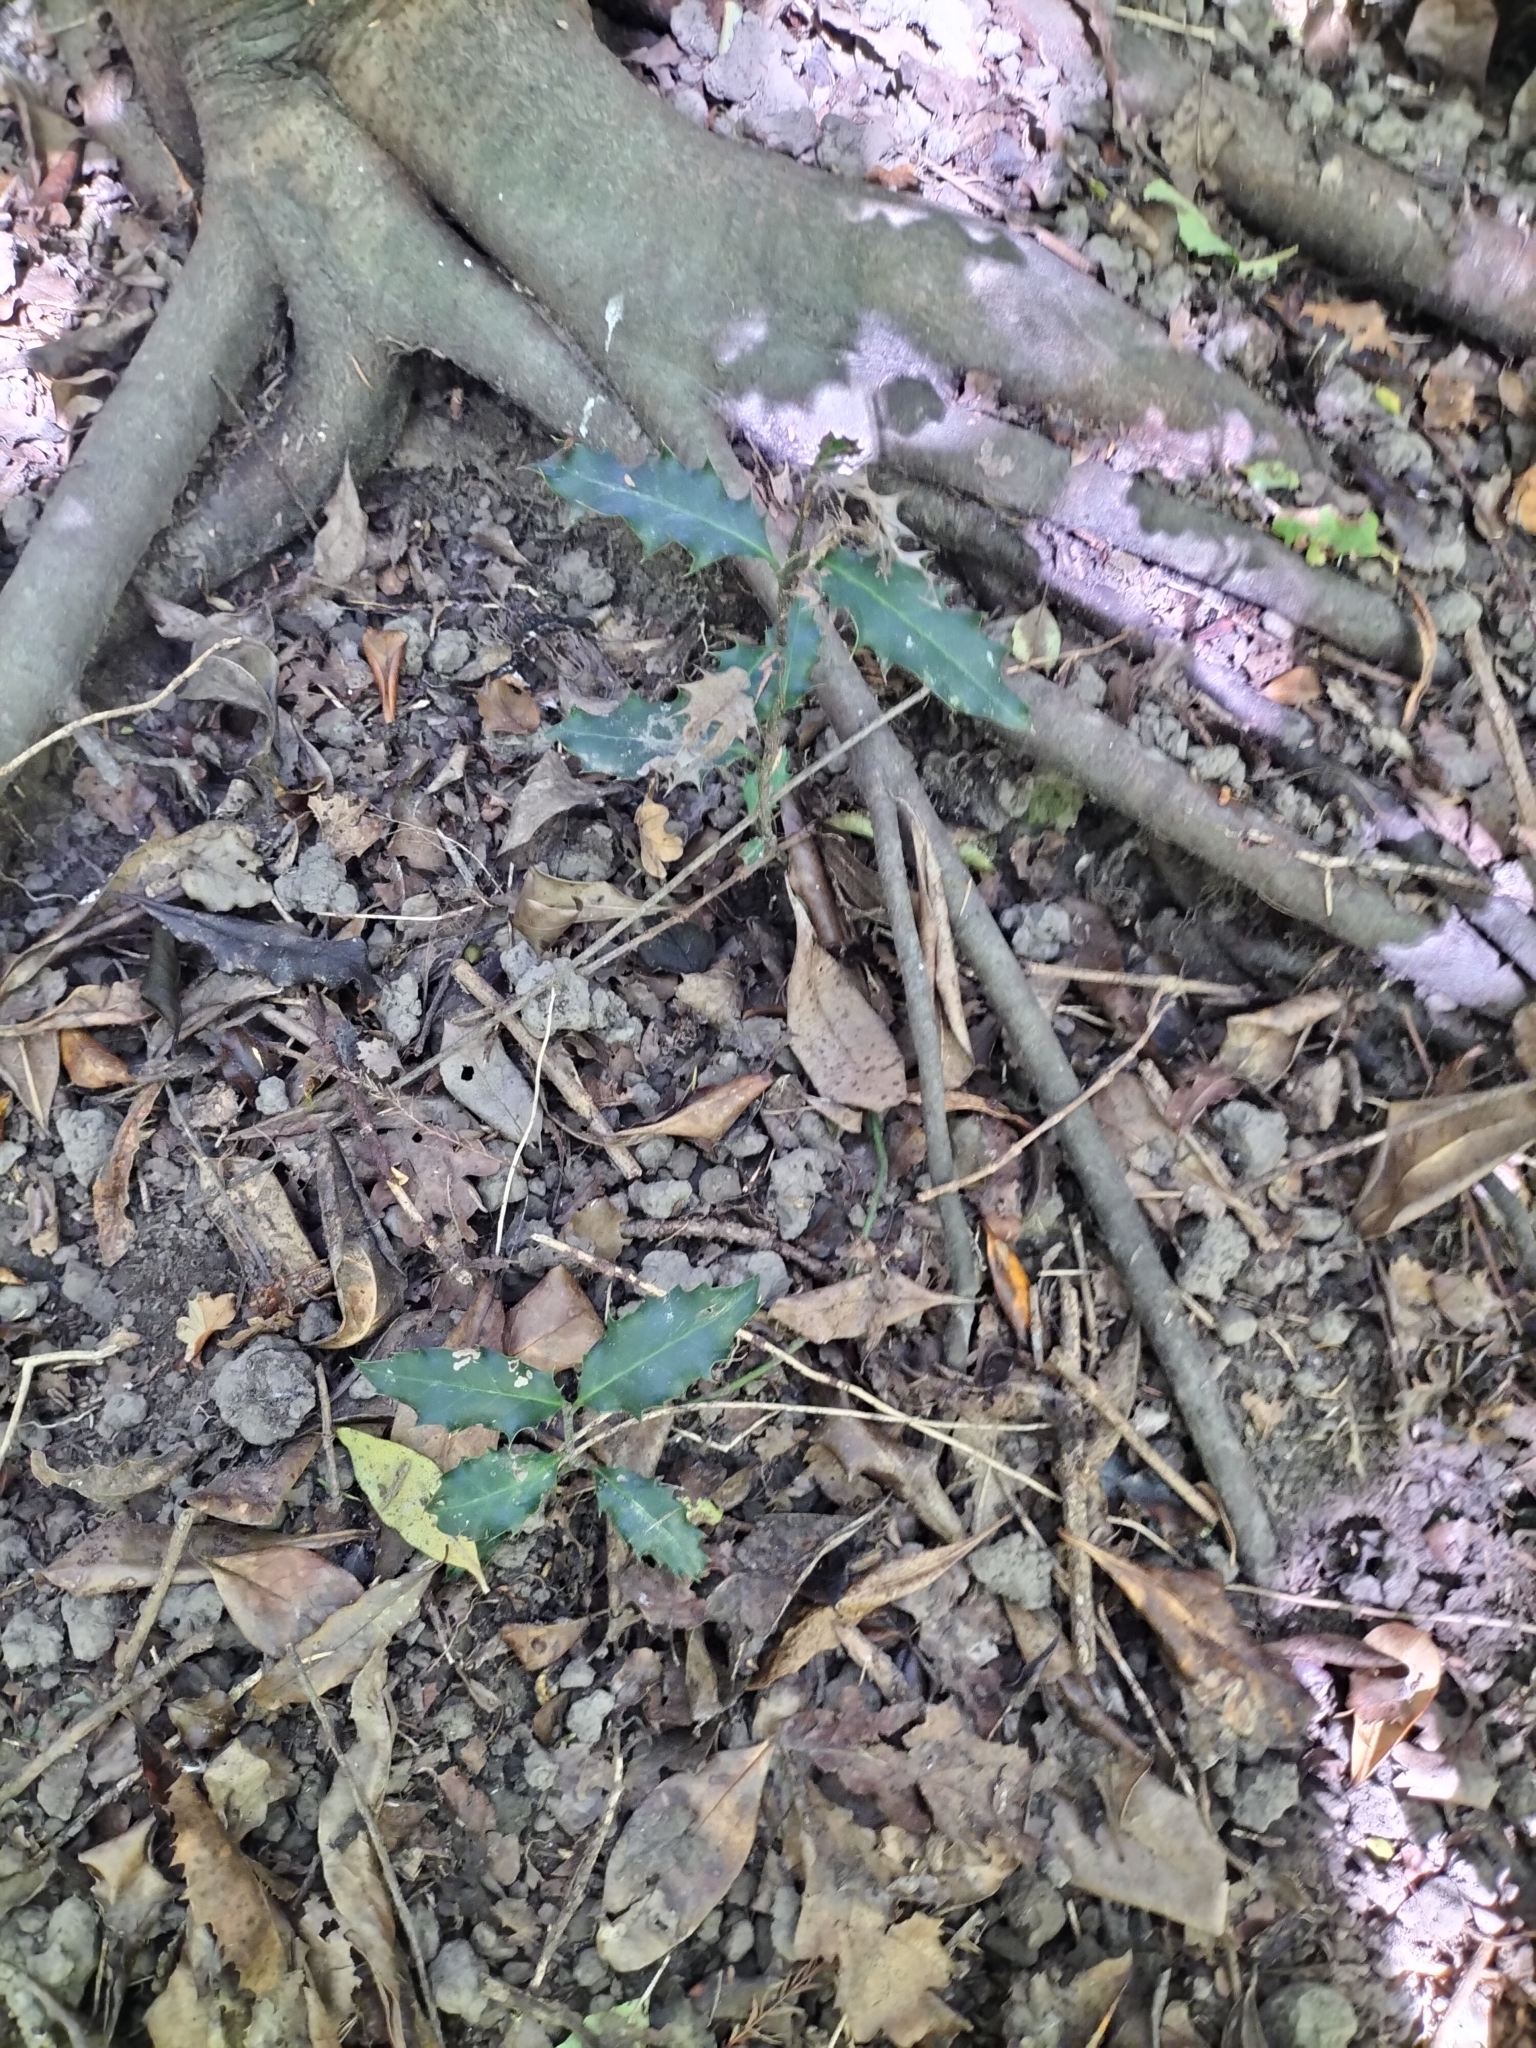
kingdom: Plantae
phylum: Tracheophyta
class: Magnoliopsida
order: Aquifoliales
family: Aquifoliaceae
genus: Ilex
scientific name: Ilex aquifolium
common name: English holly
